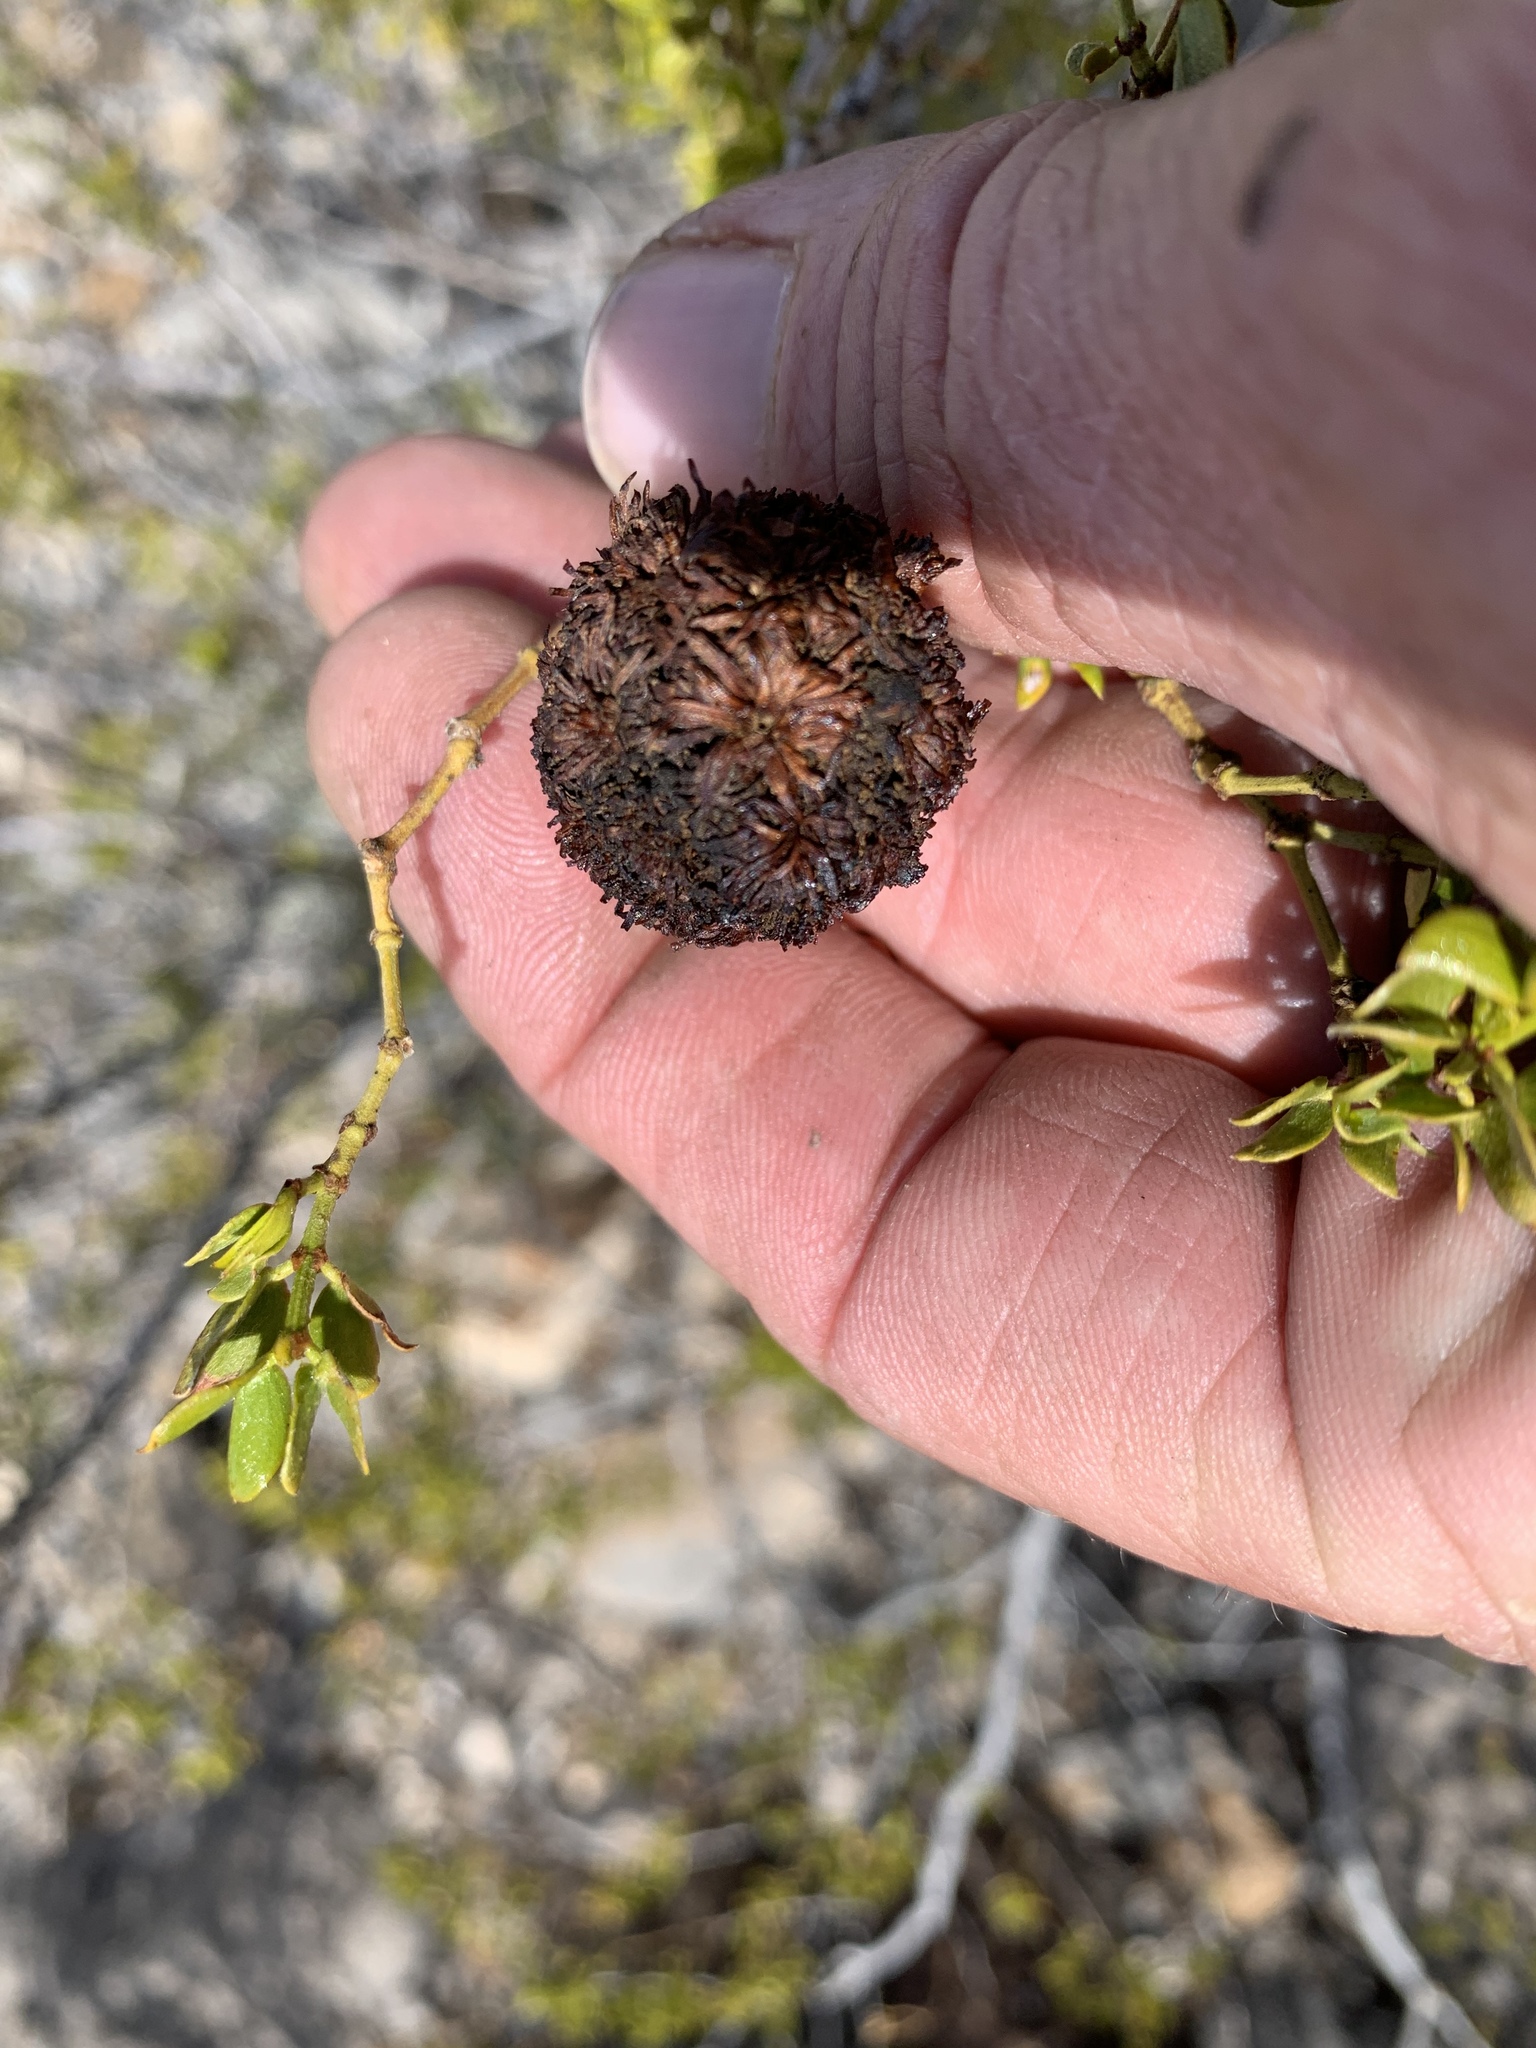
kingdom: Animalia
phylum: Arthropoda
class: Insecta
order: Diptera
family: Cecidomyiidae
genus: Asphondylia
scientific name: Asphondylia auripila
